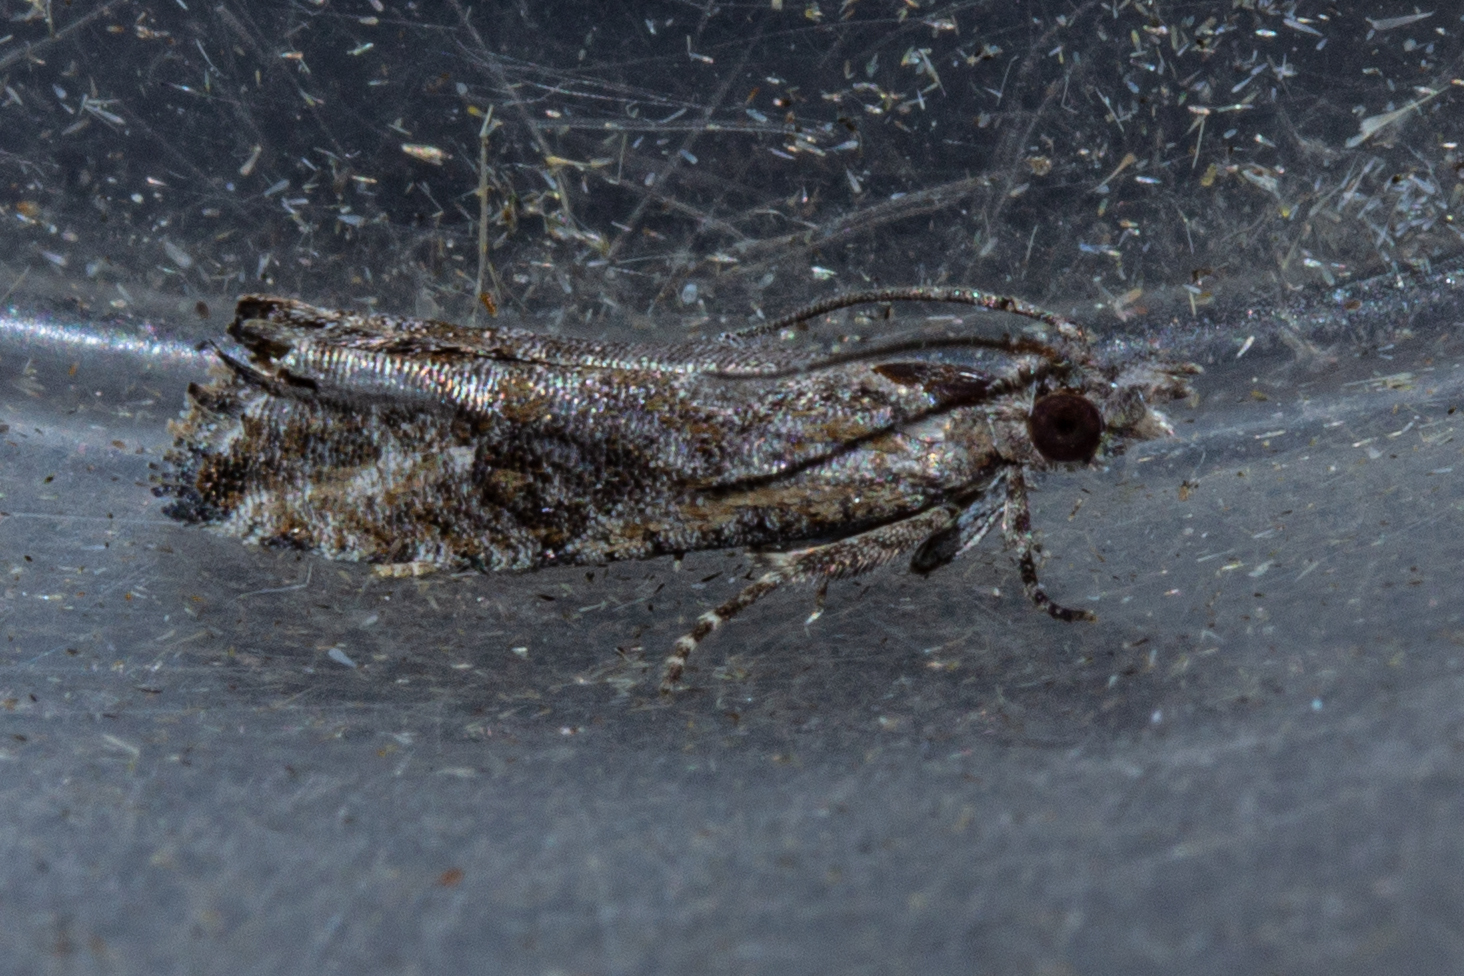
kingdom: Animalia
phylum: Arthropoda
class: Insecta
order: Lepidoptera
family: Tortricidae
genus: Strepsicrates
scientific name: Strepsicrates ejectana
